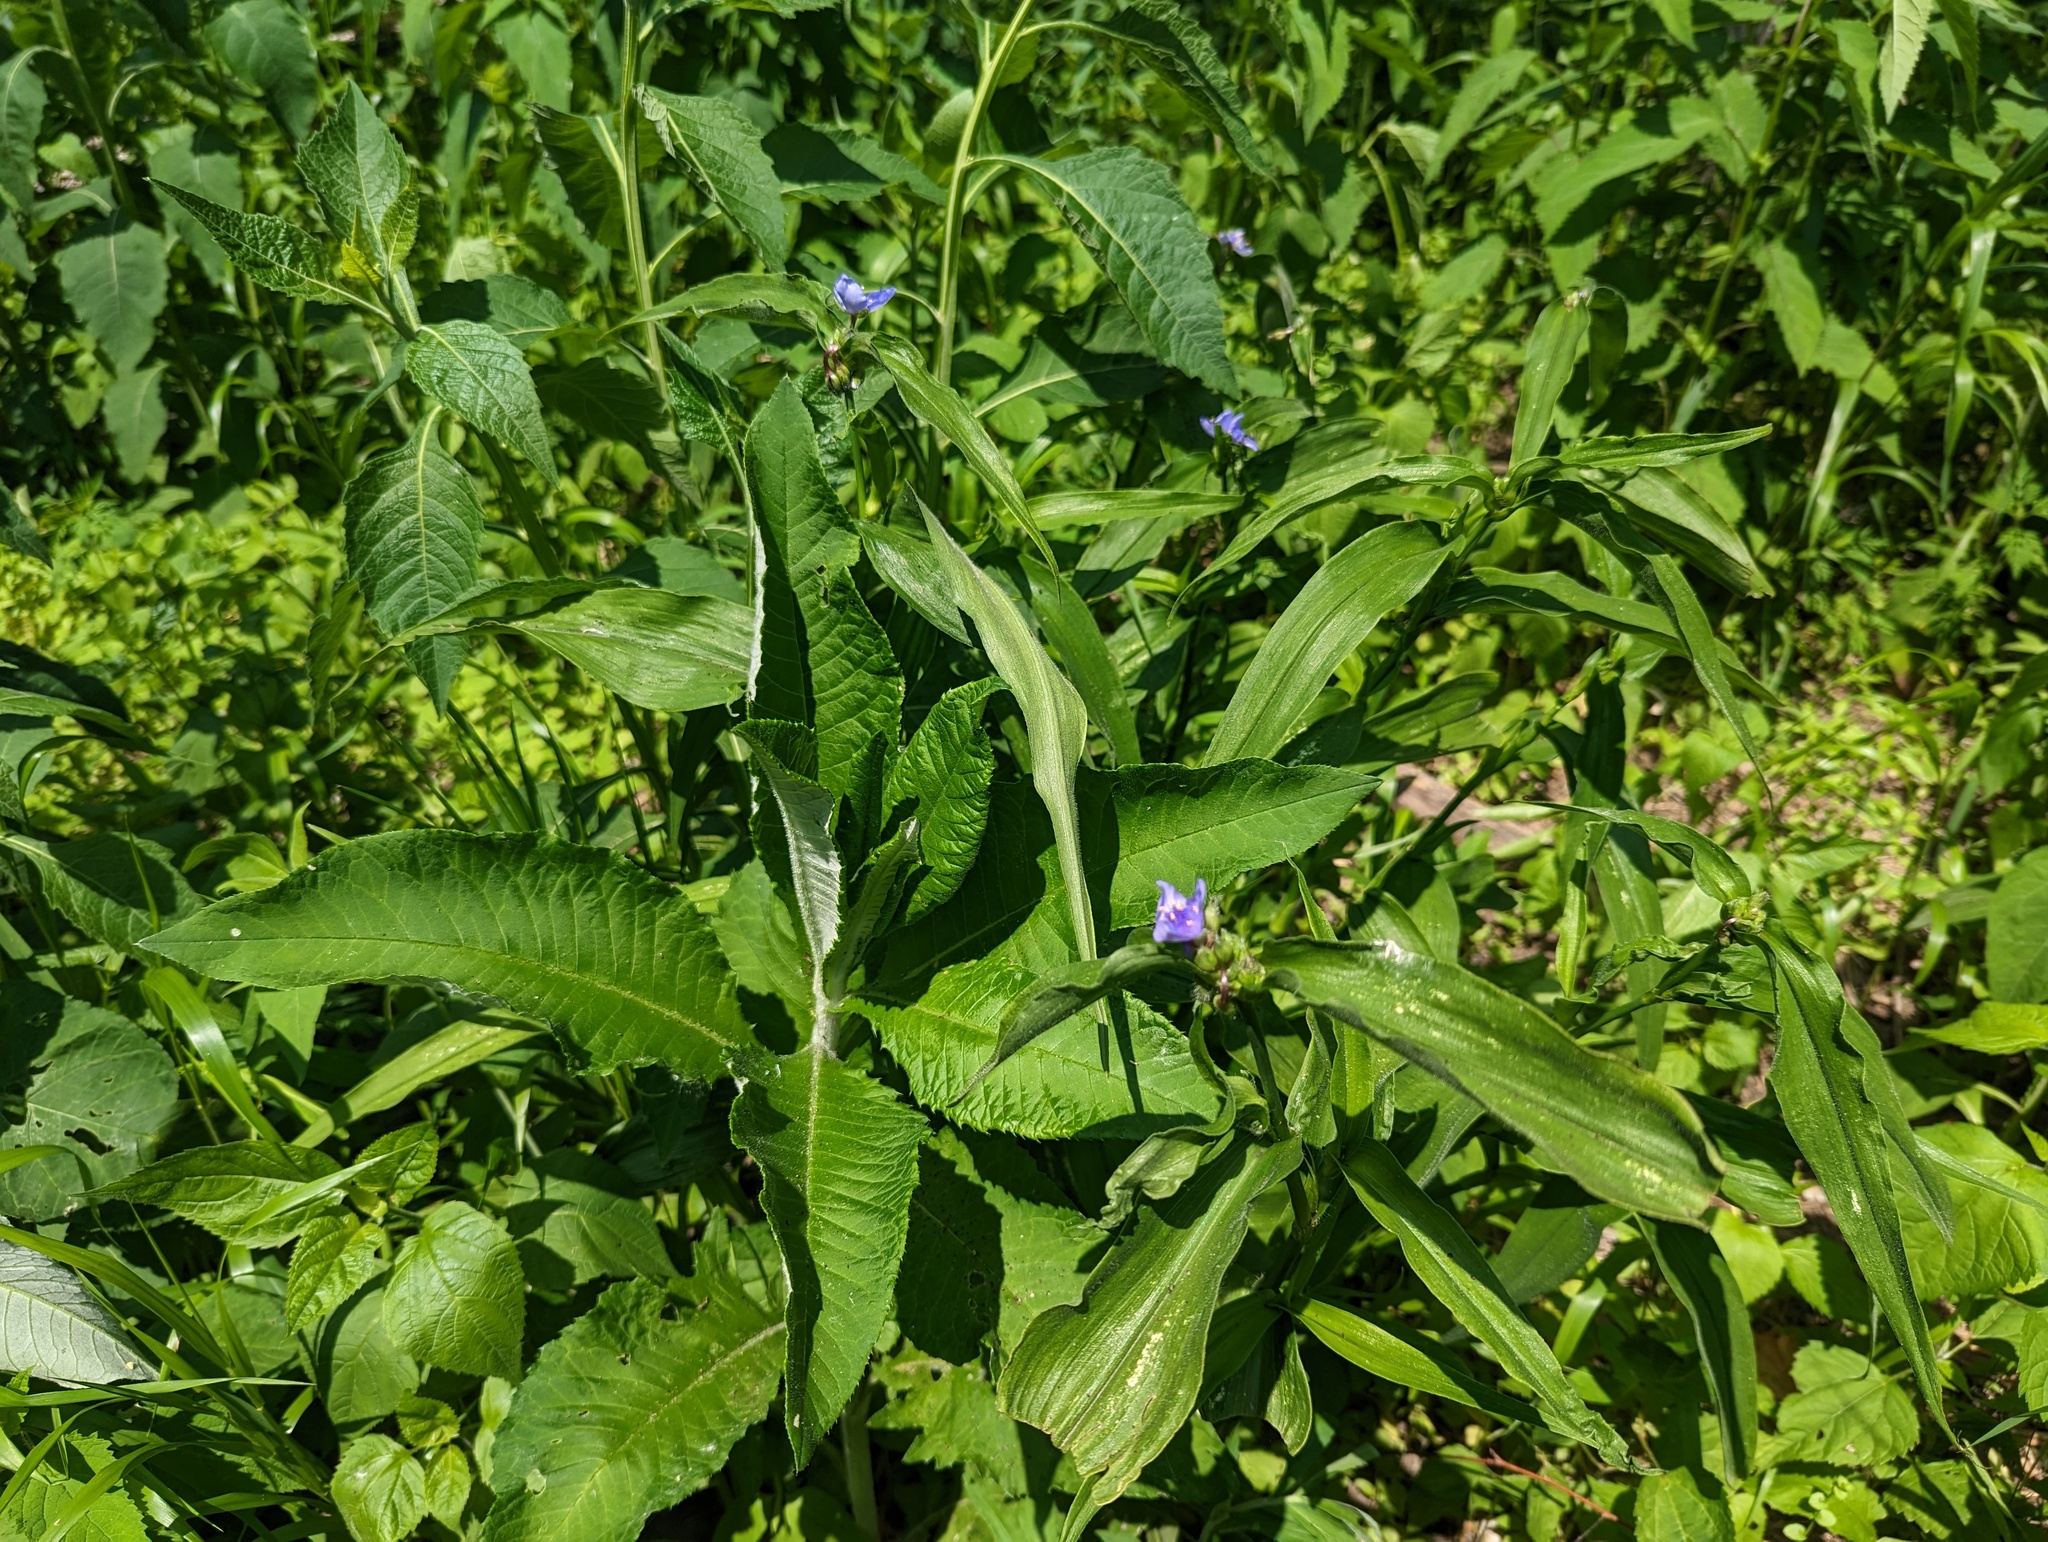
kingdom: Plantae
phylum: Tracheophyta
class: Liliopsida
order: Commelinales
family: Commelinaceae
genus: Tradescantia
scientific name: Tradescantia subaspera
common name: Wide-leaf spiderwort
